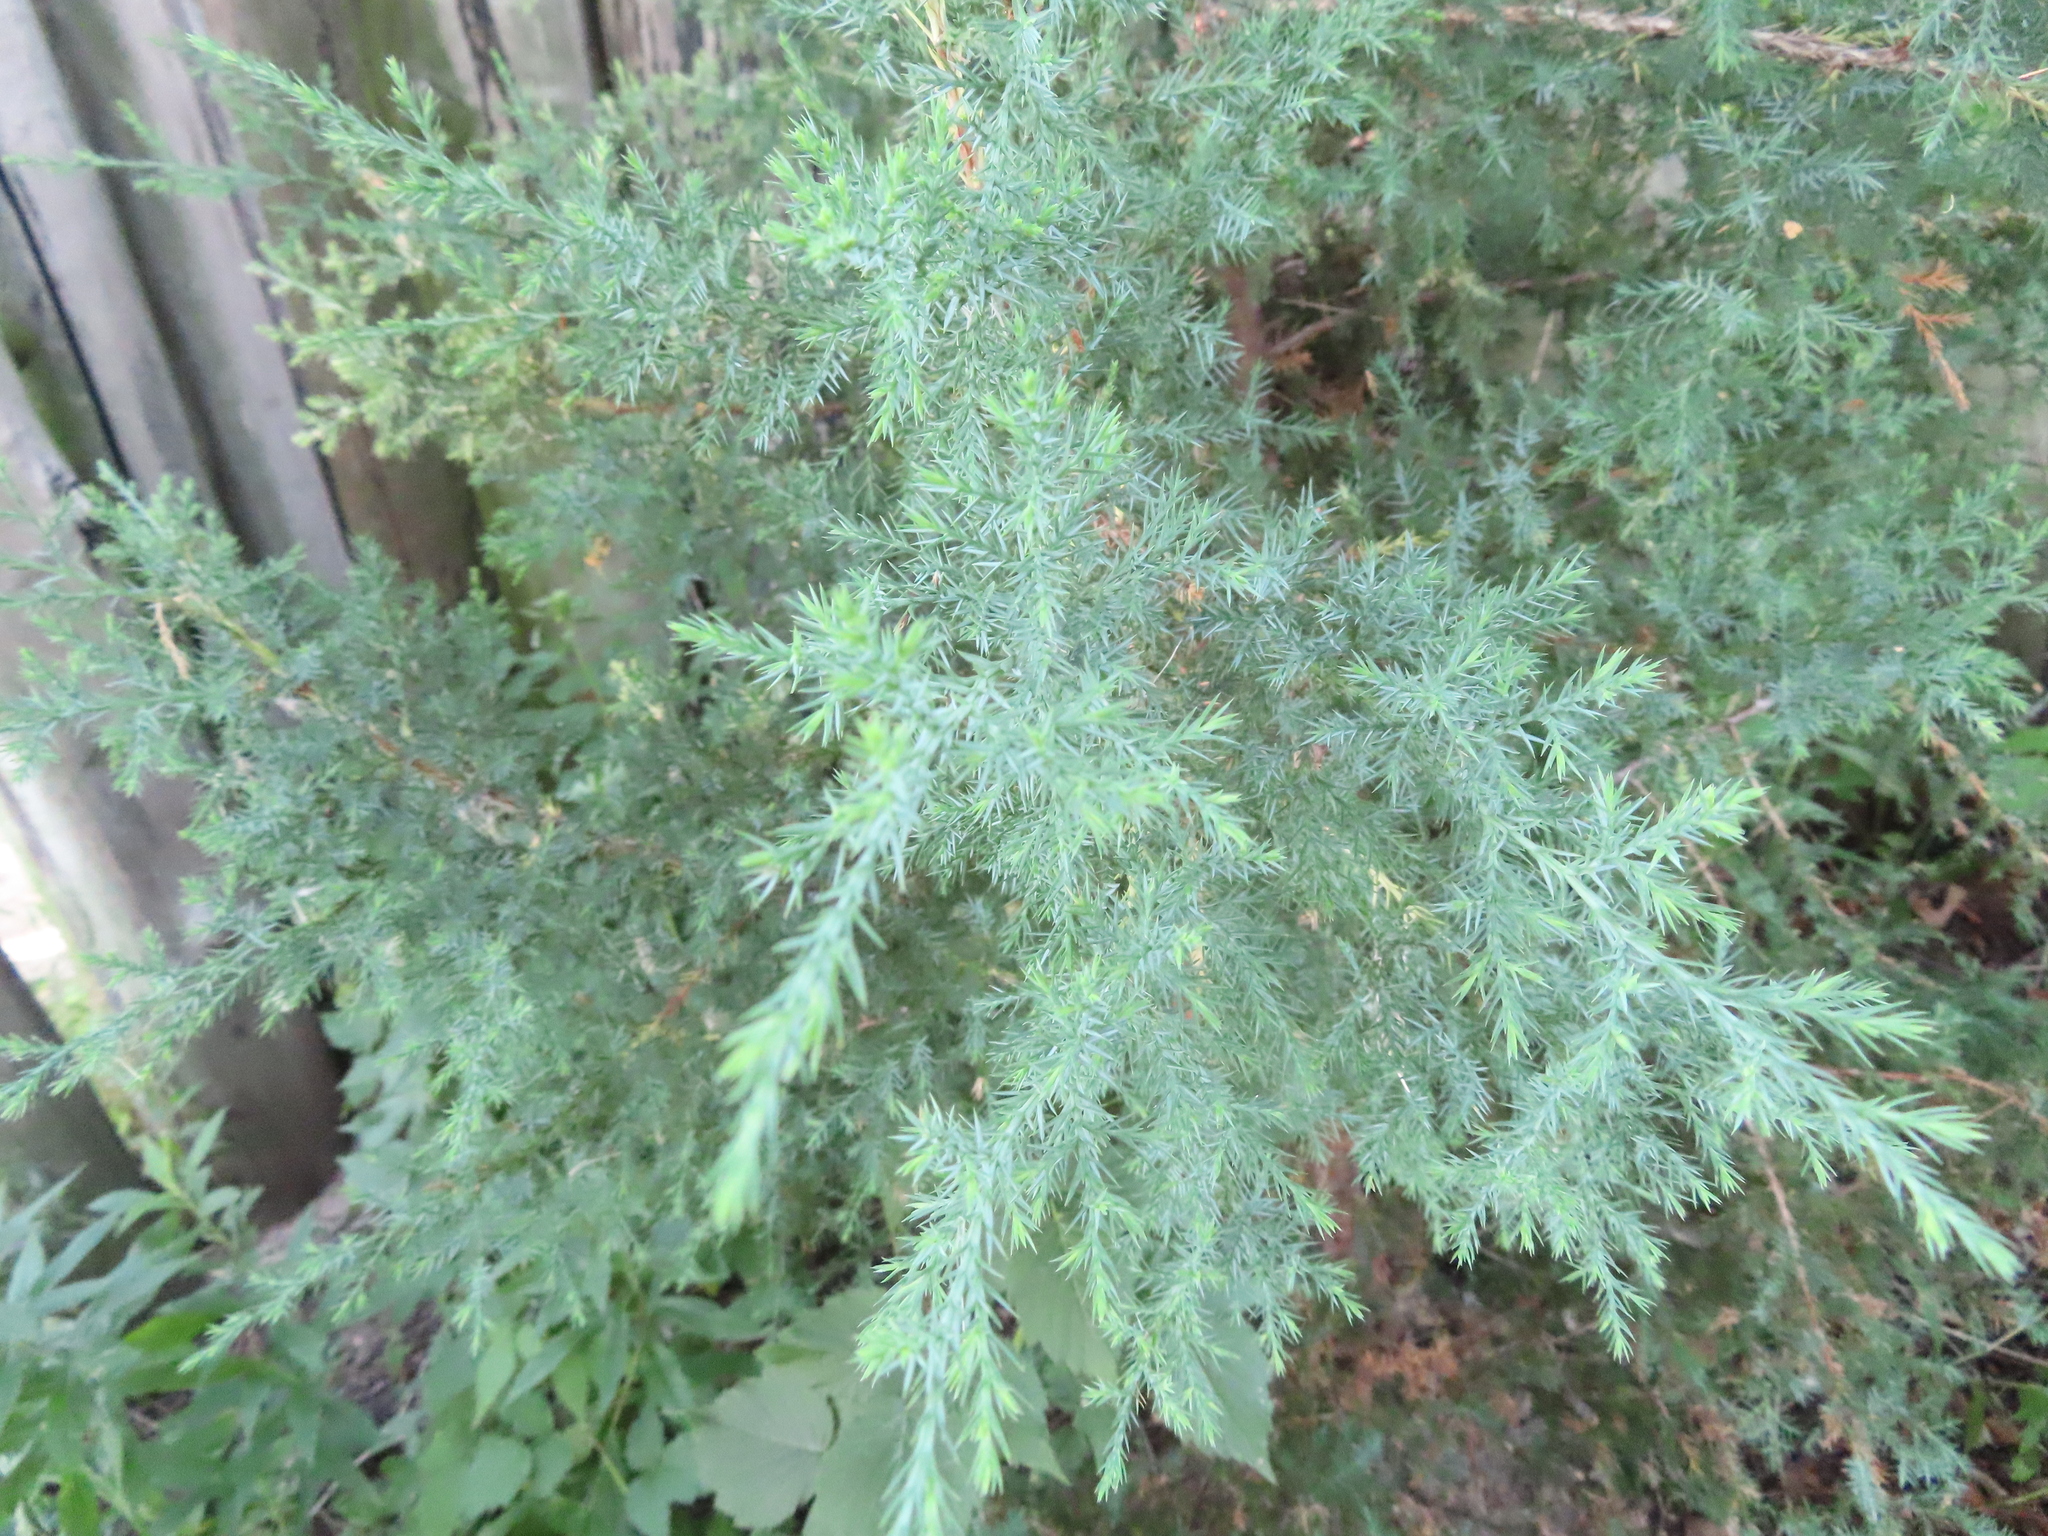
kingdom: Plantae
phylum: Tracheophyta
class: Pinopsida
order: Pinales
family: Cupressaceae
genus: Juniperus
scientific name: Juniperus virginiana
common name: Red juniper
